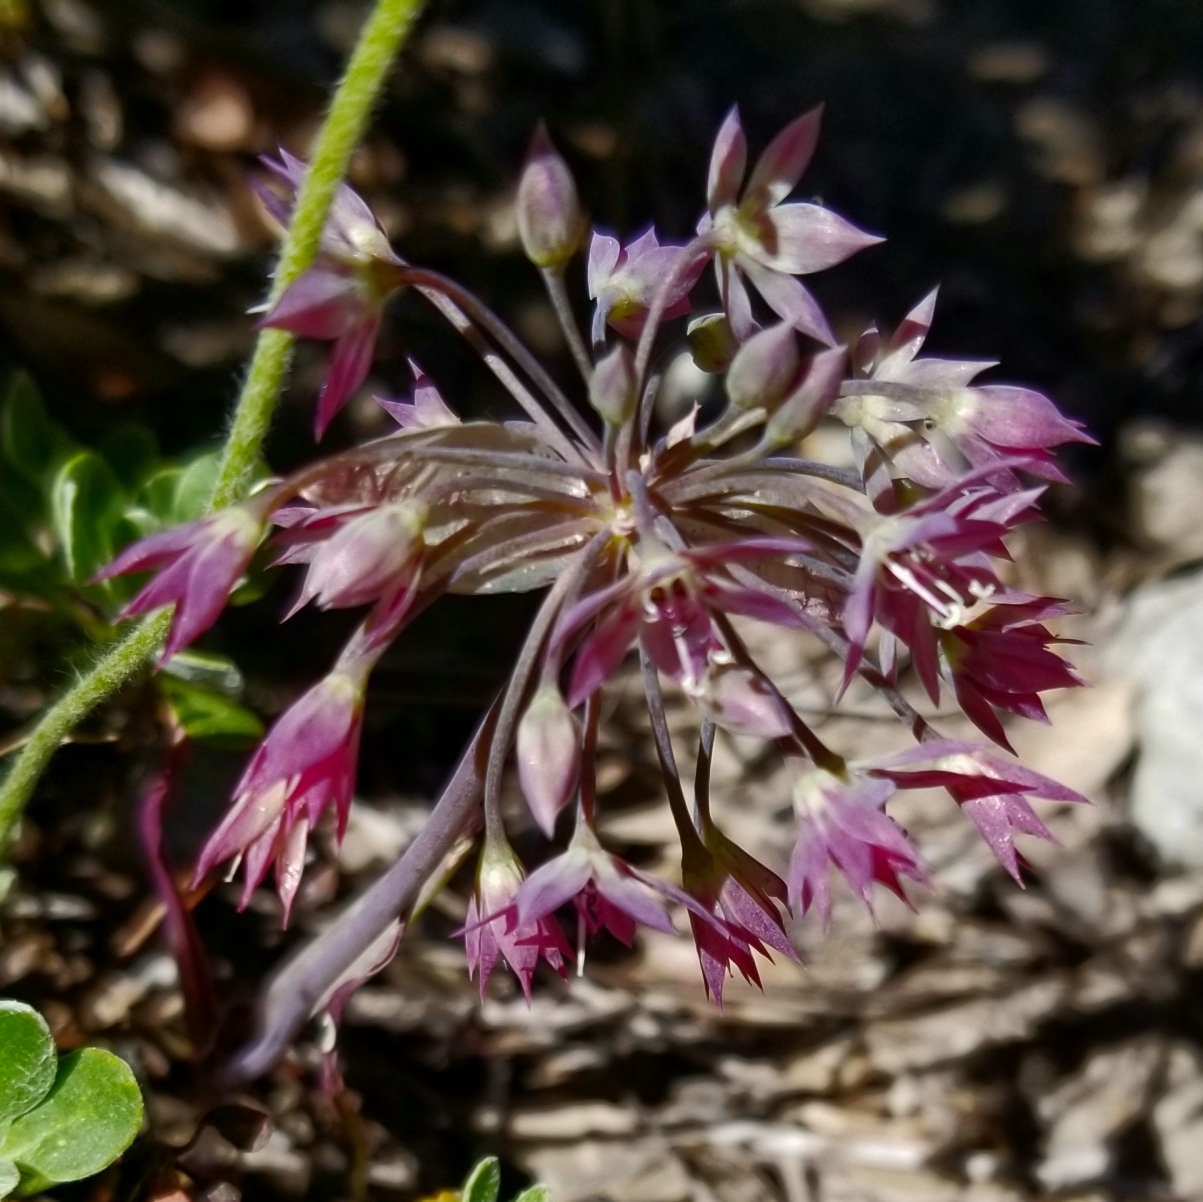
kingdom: Plantae
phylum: Tracheophyta
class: Liliopsida
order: Asparagales
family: Amaryllidaceae
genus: Allium
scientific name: Allium campanulatum
